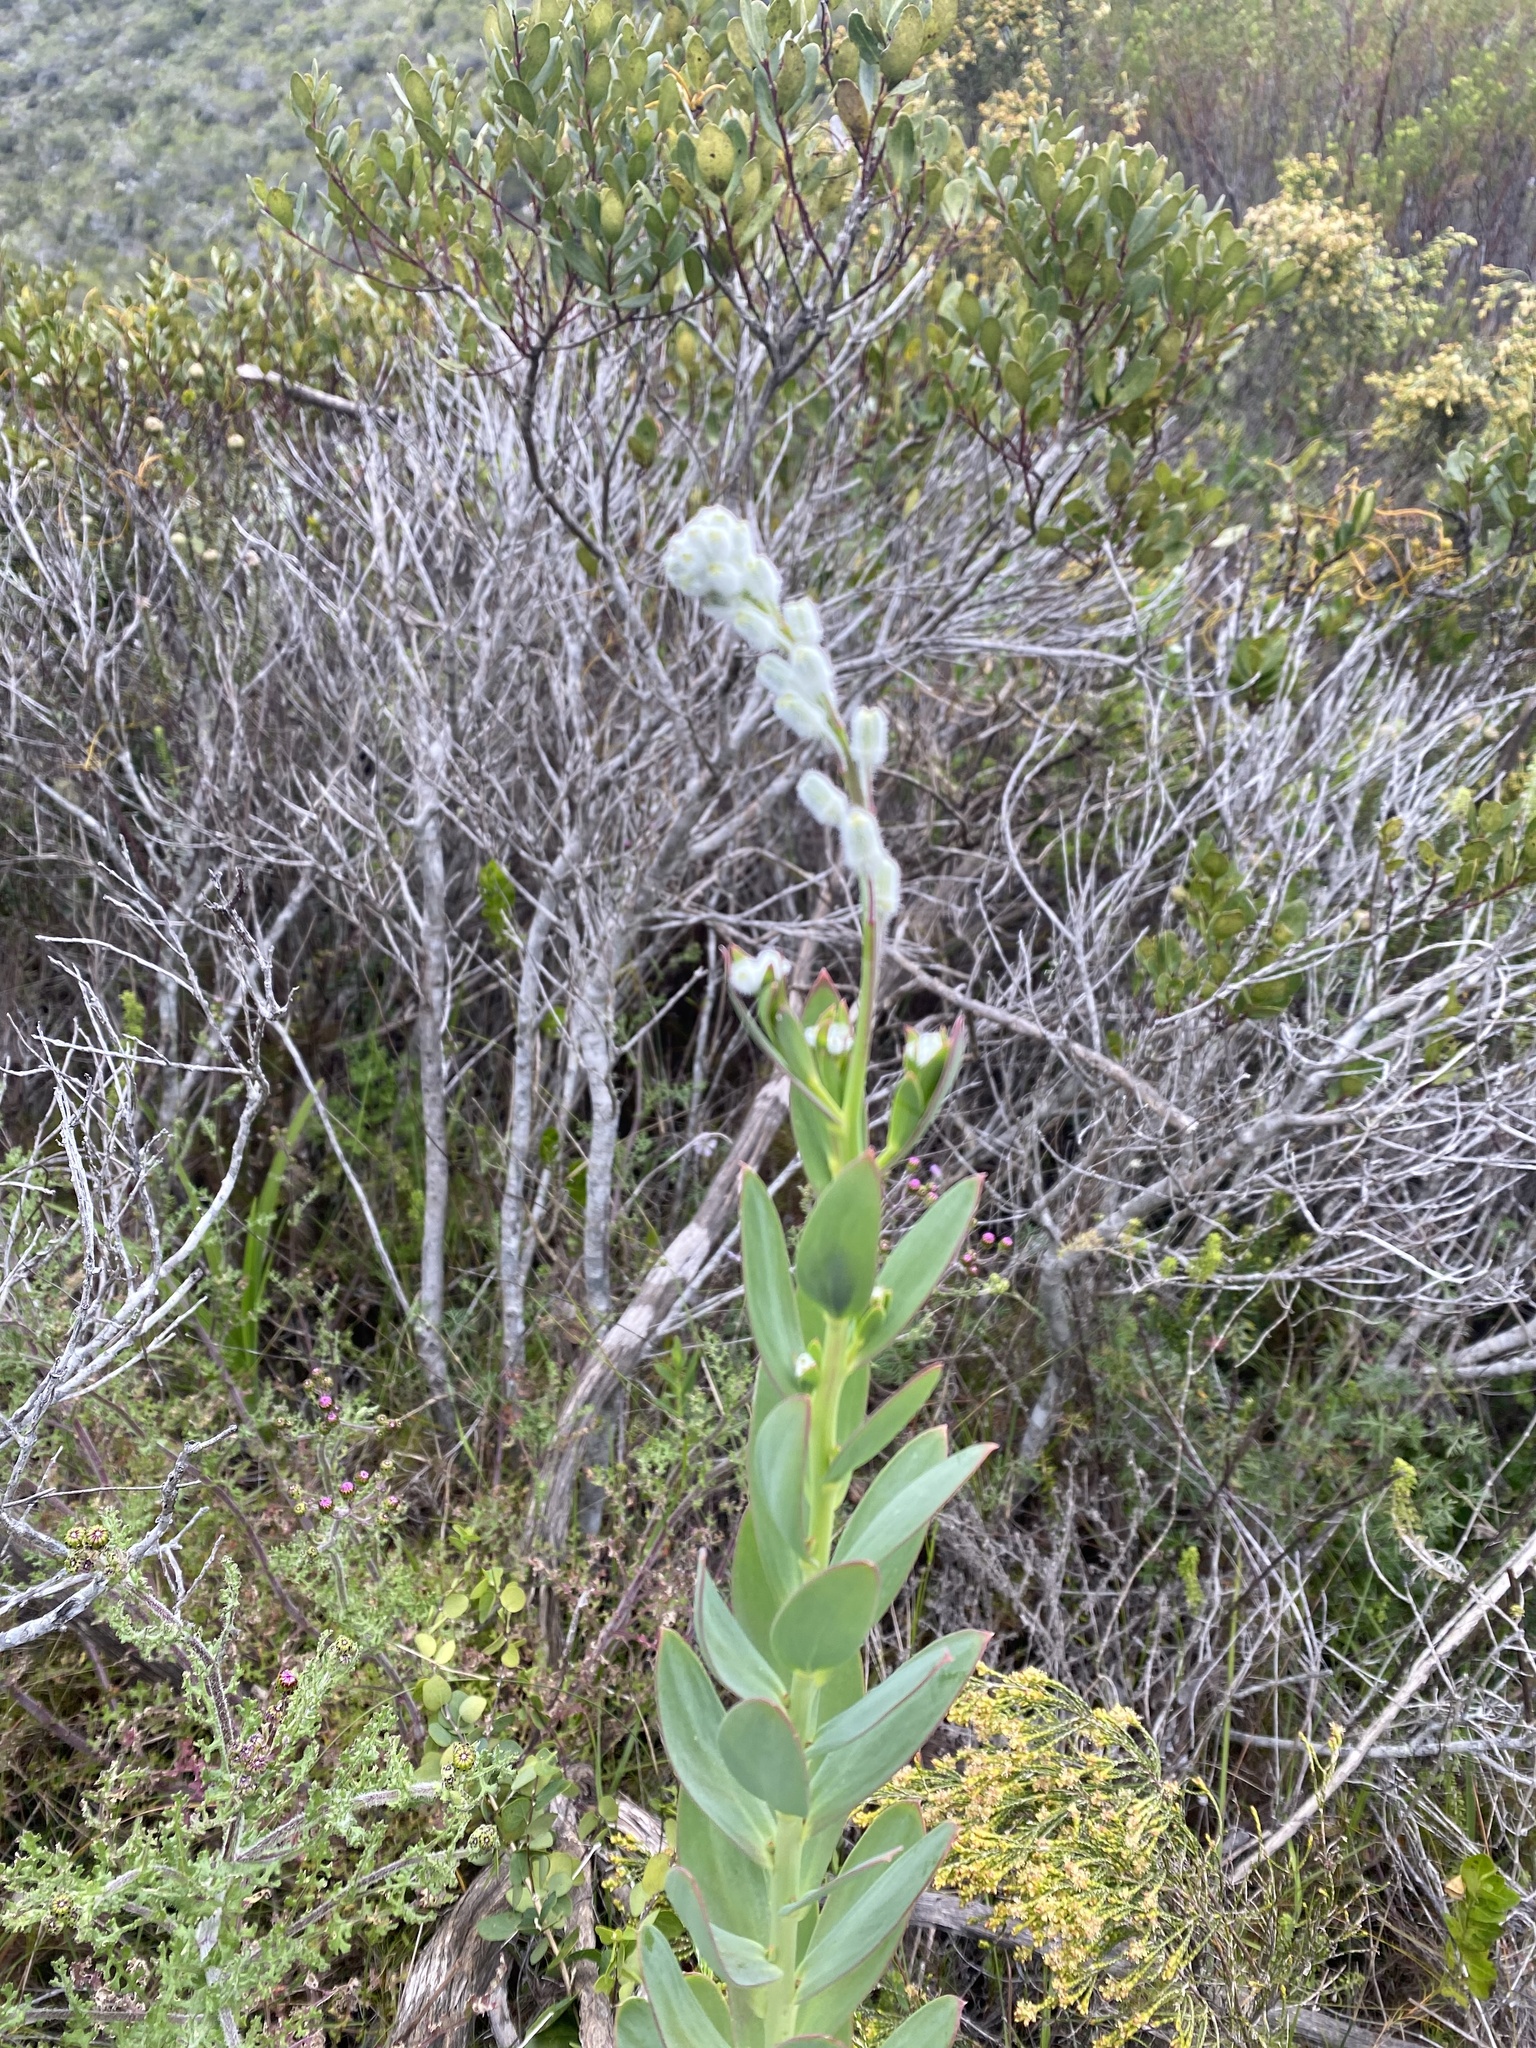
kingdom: Plantae
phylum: Tracheophyta
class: Magnoliopsida
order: Brassicales
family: Brassicaceae
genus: Heliophila
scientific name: Heliophila linearis
